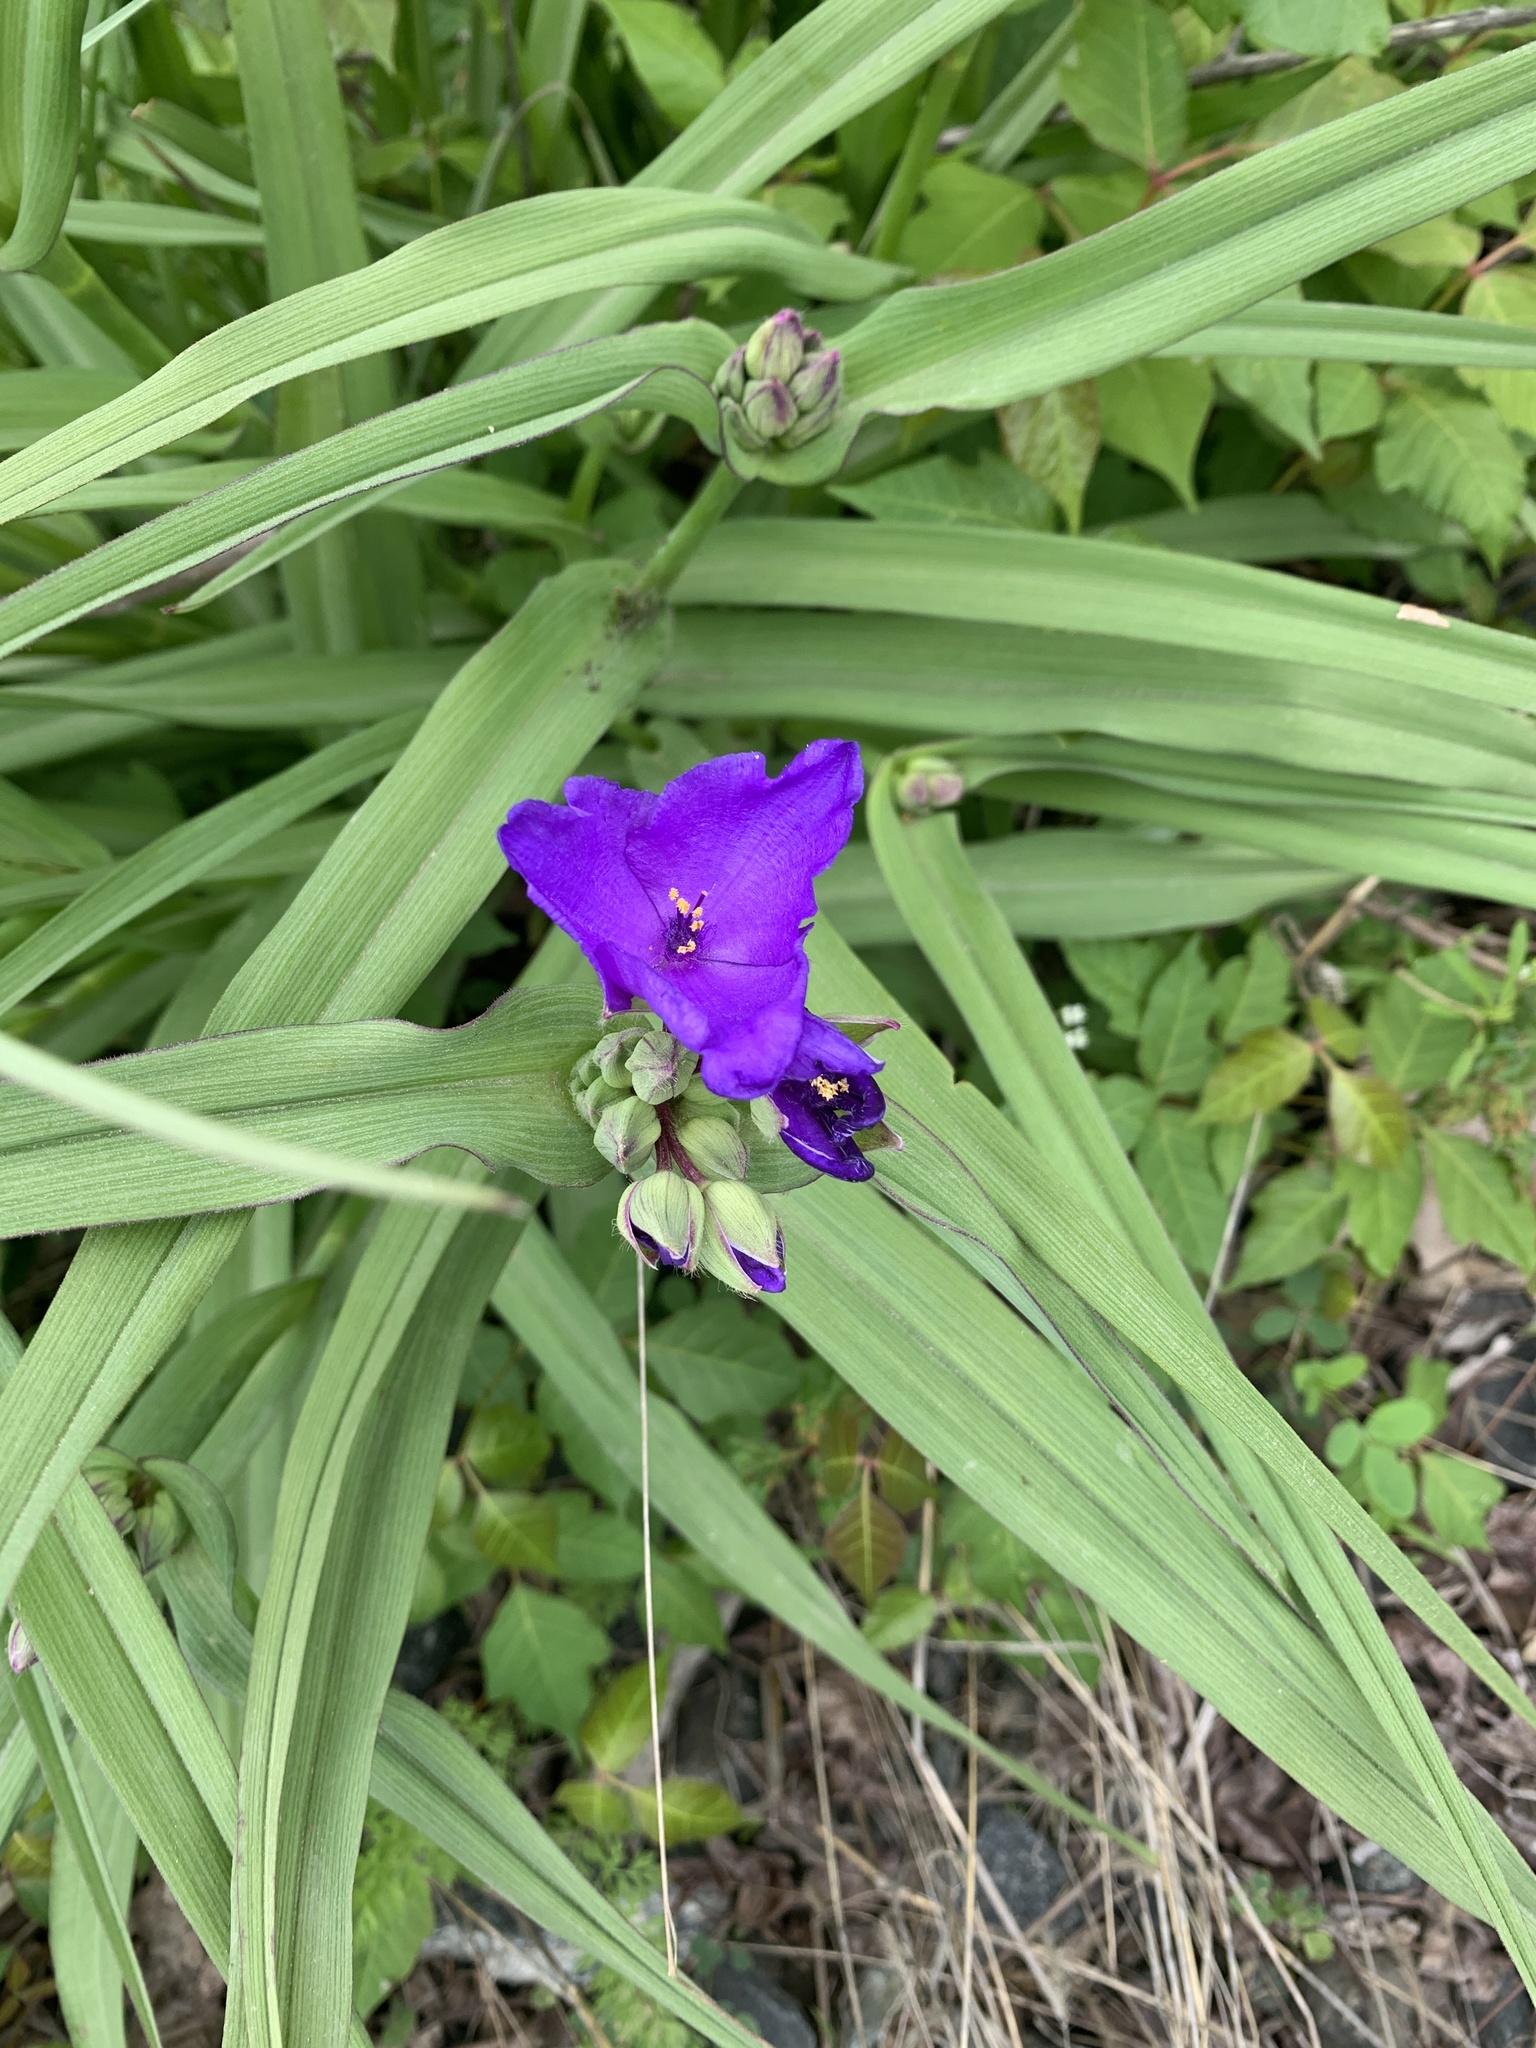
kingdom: Plantae
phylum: Tracheophyta
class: Liliopsida
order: Commelinales
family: Commelinaceae
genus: Tradescantia
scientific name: Tradescantia virginiana
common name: Spiderwort
